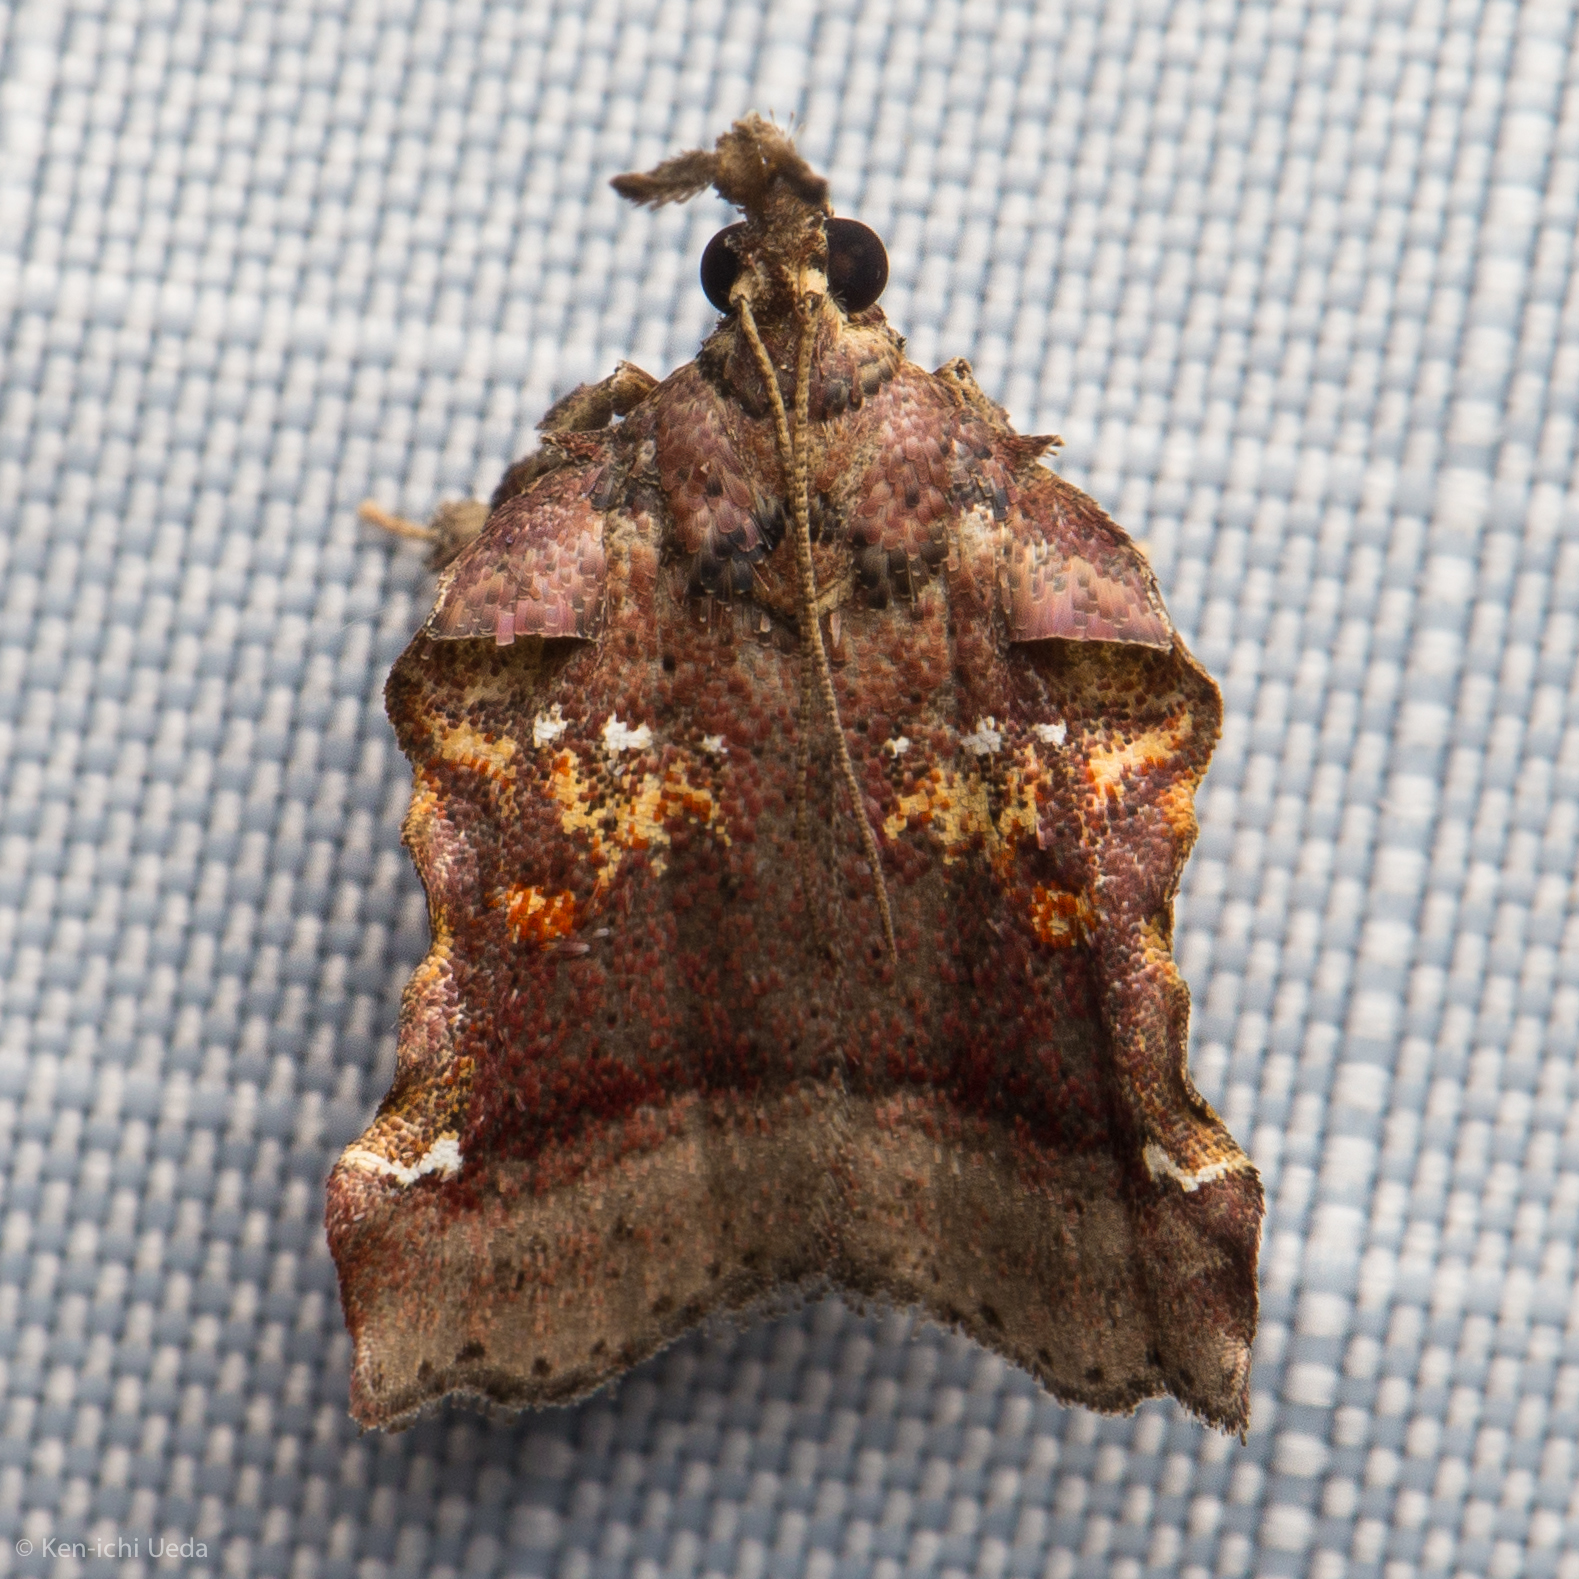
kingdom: Animalia
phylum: Arthropoda
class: Insecta
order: Lepidoptera
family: Pyralidae
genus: Clydonopteron
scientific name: Clydonopteron sacculana
